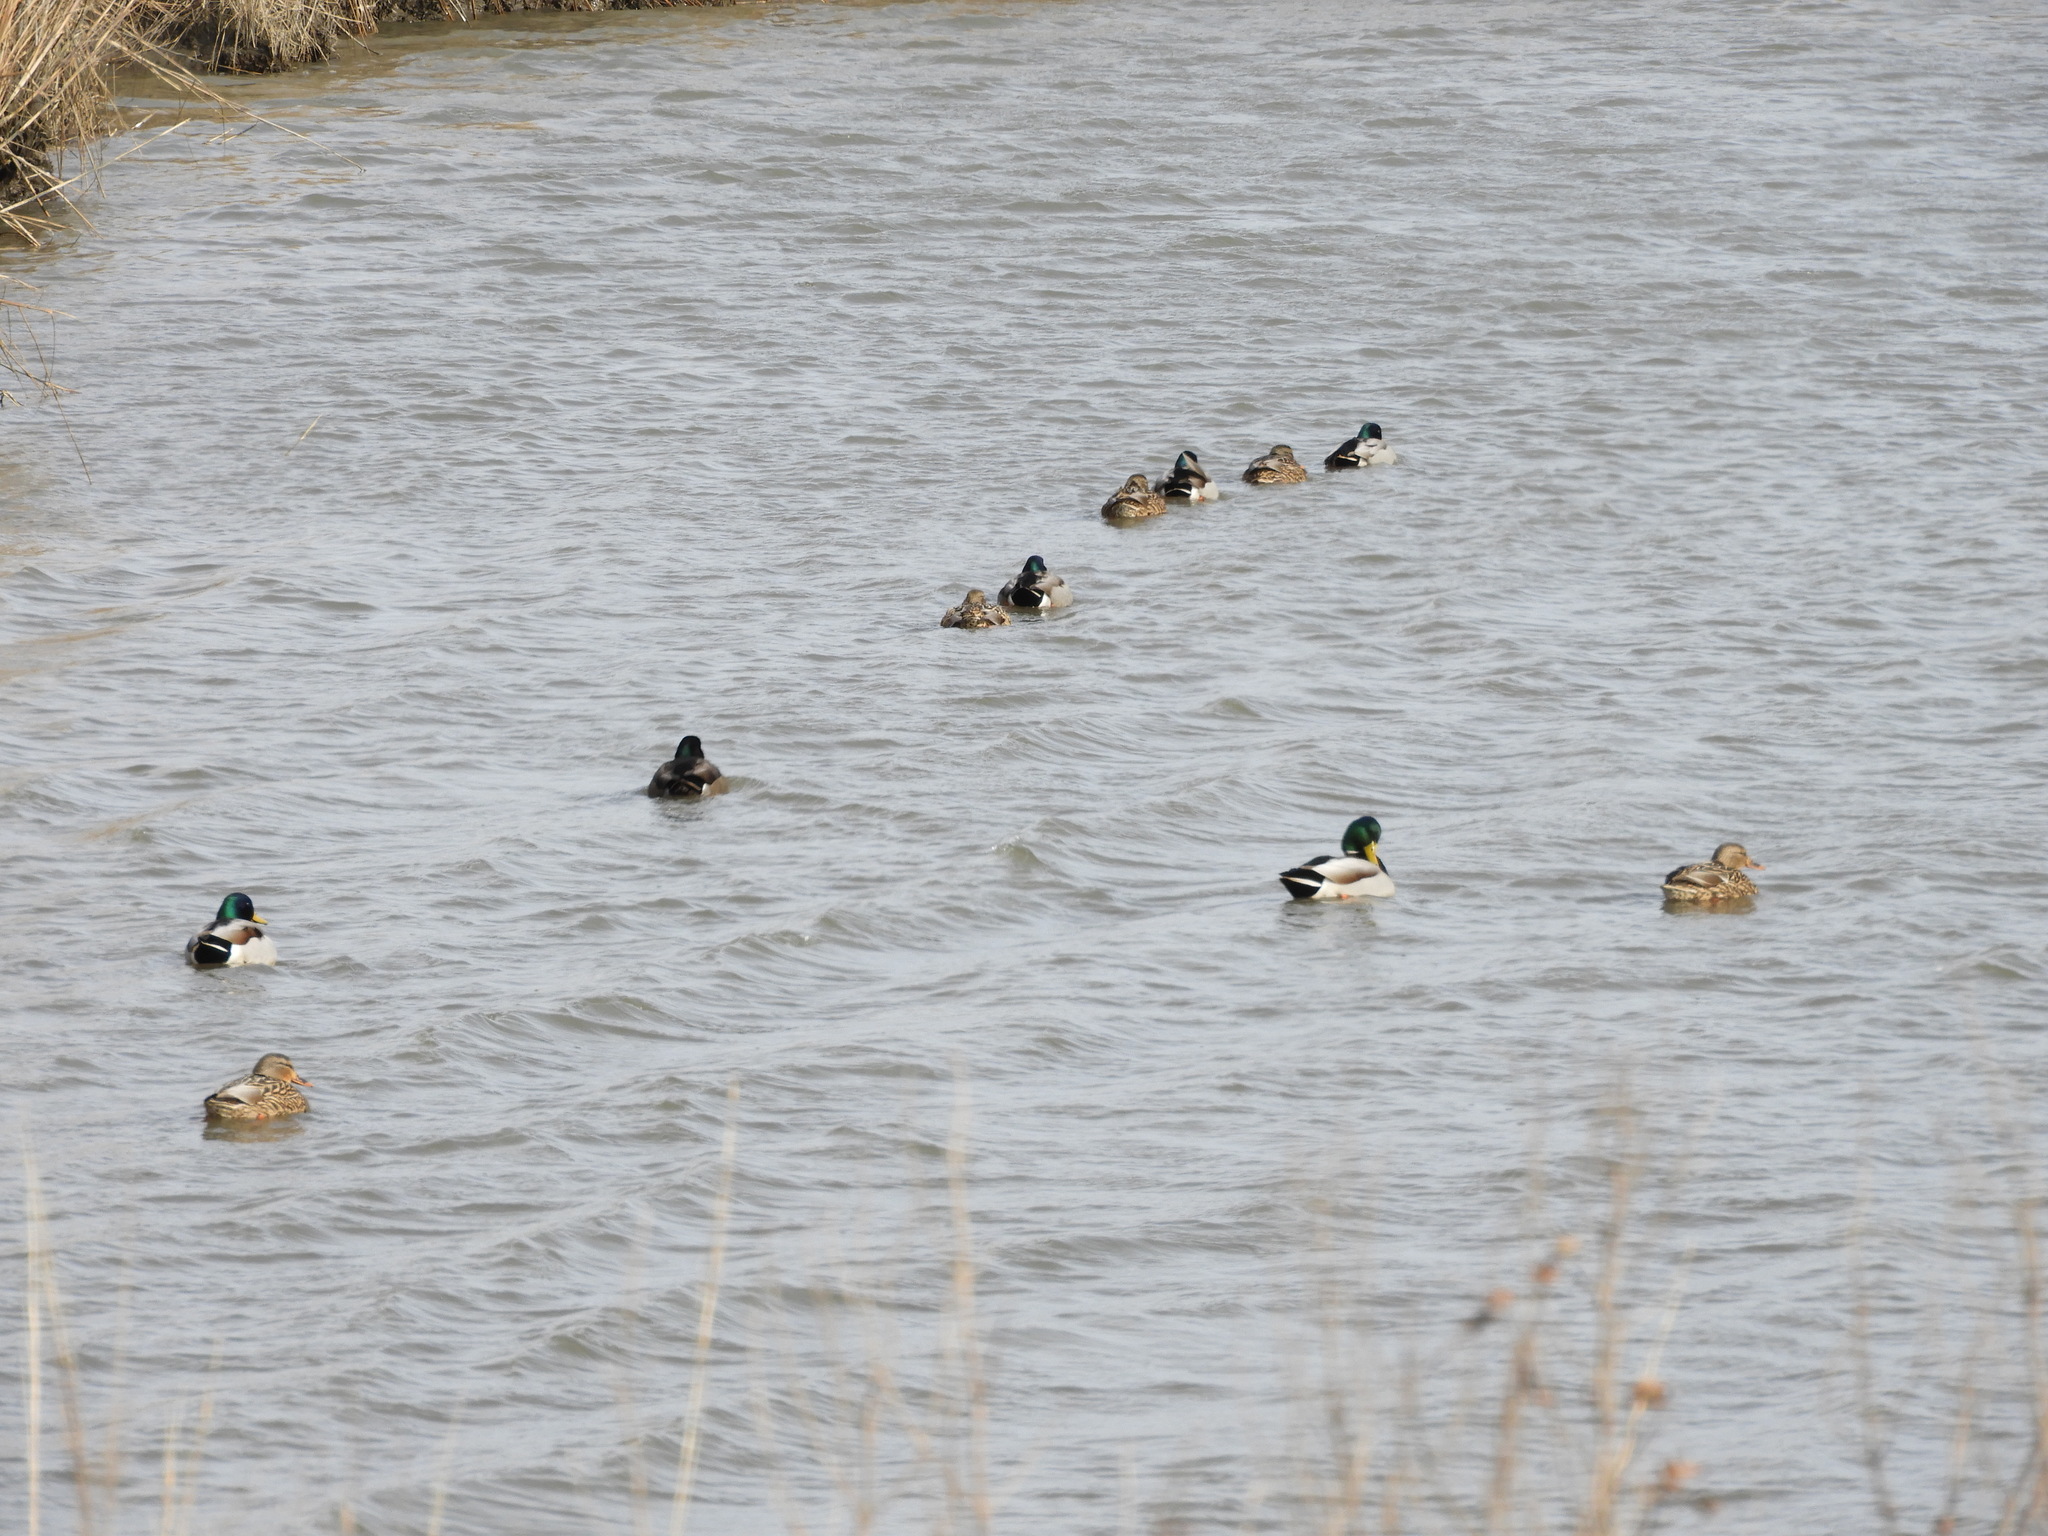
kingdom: Animalia
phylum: Chordata
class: Aves
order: Anseriformes
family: Anatidae
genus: Anas
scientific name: Anas platyrhynchos
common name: Mallard
